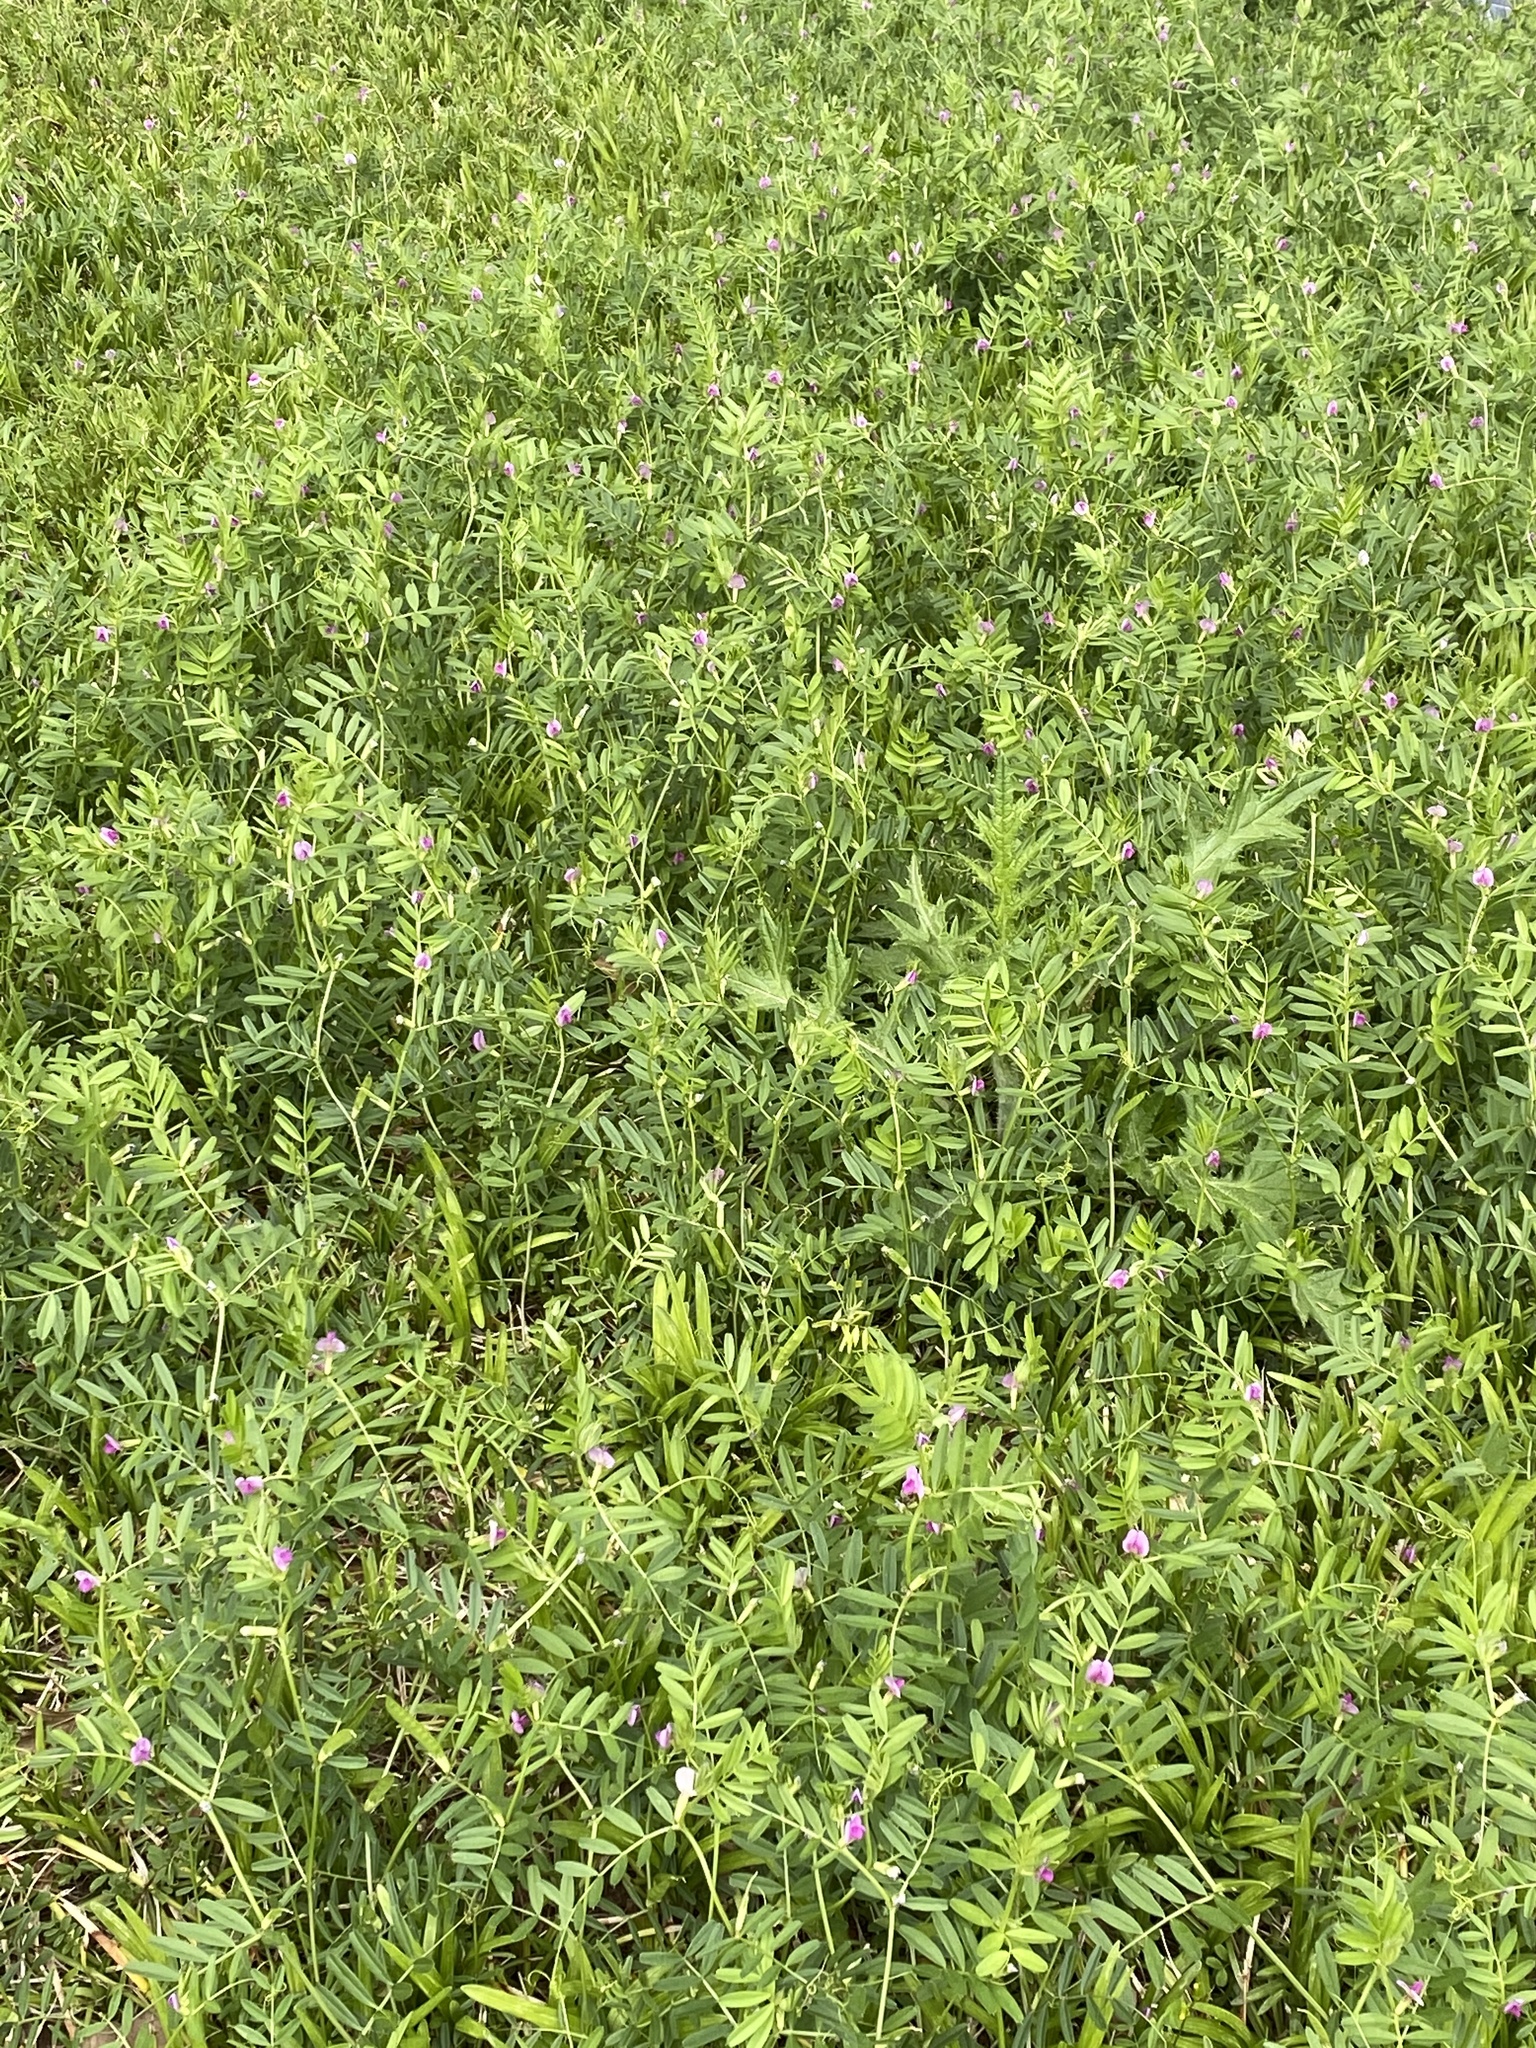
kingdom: Plantae
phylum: Tracheophyta
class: Magnoliopsida
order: Fabales
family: Fabaceae
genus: Vicia
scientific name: Vicia sativa
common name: Garden vetch
